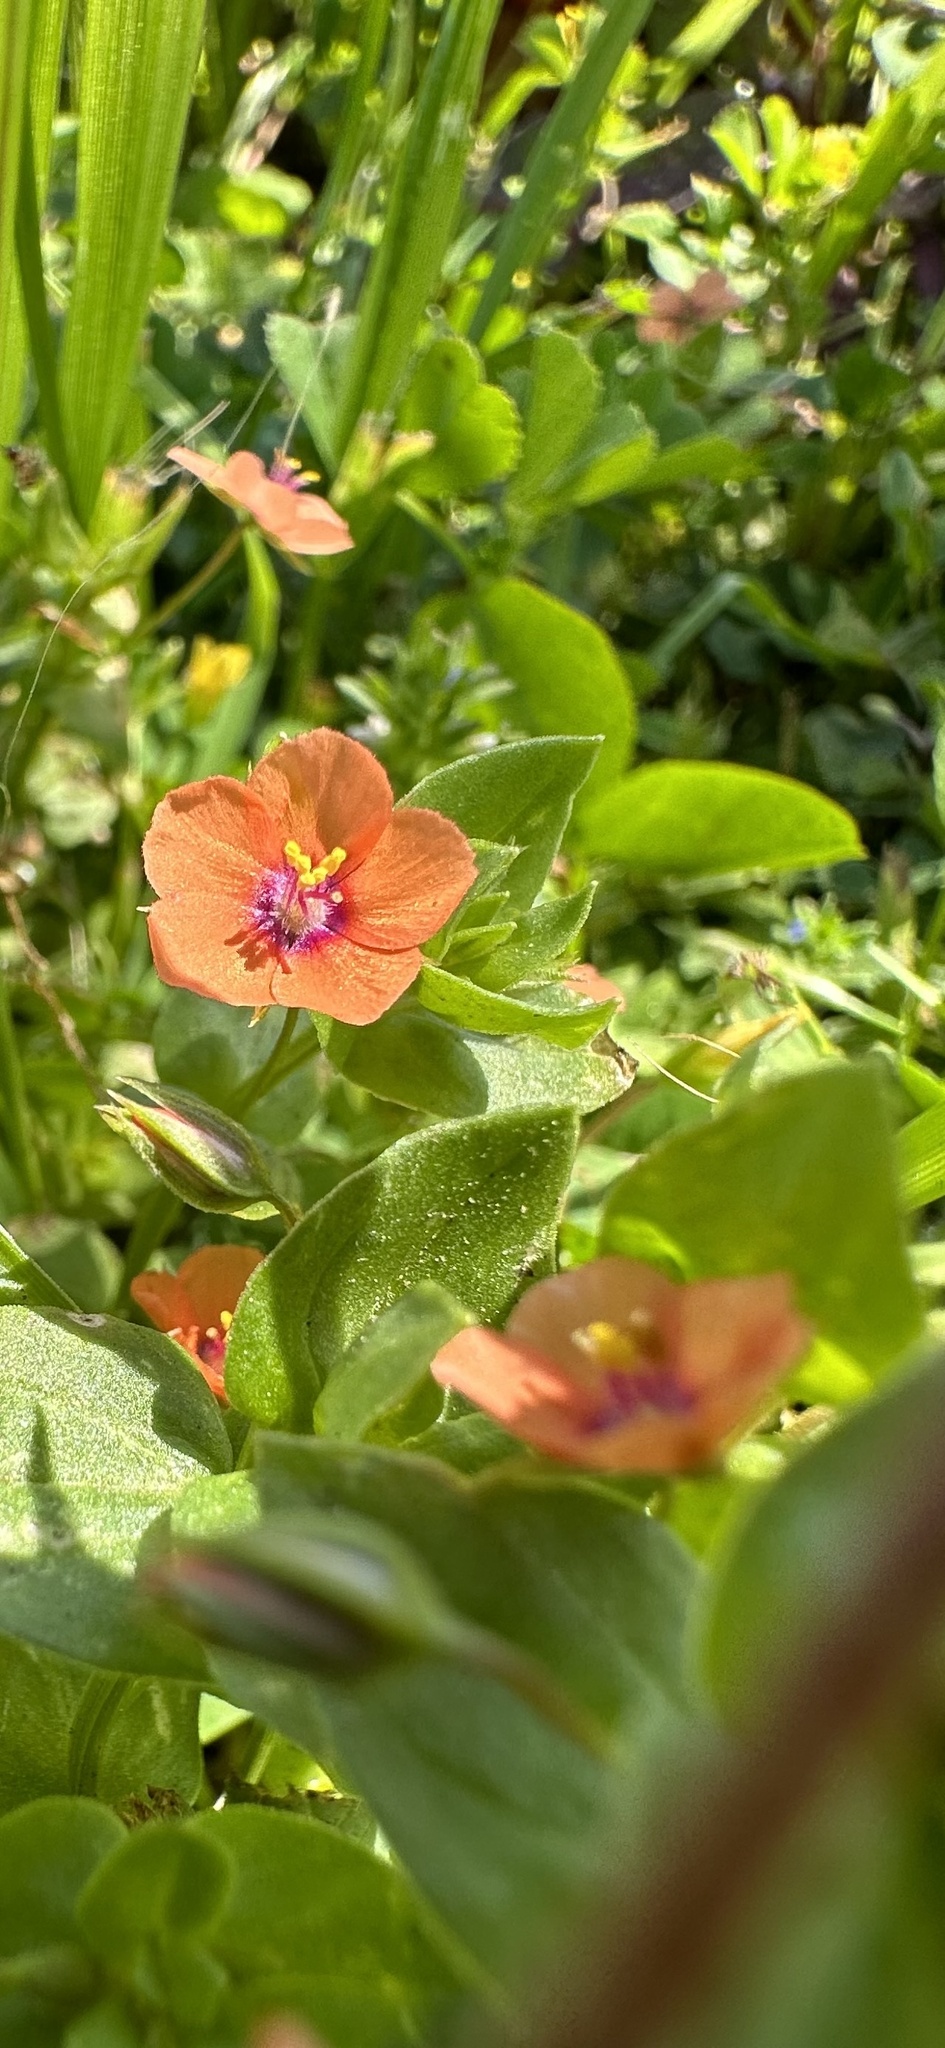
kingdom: Plantae
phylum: Tracheophyta
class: Magnoliopsida
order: Ericales
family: Primulaceae
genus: Lysimachia
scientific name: Lysimachia arvensis
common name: Scarlet pimpernel
